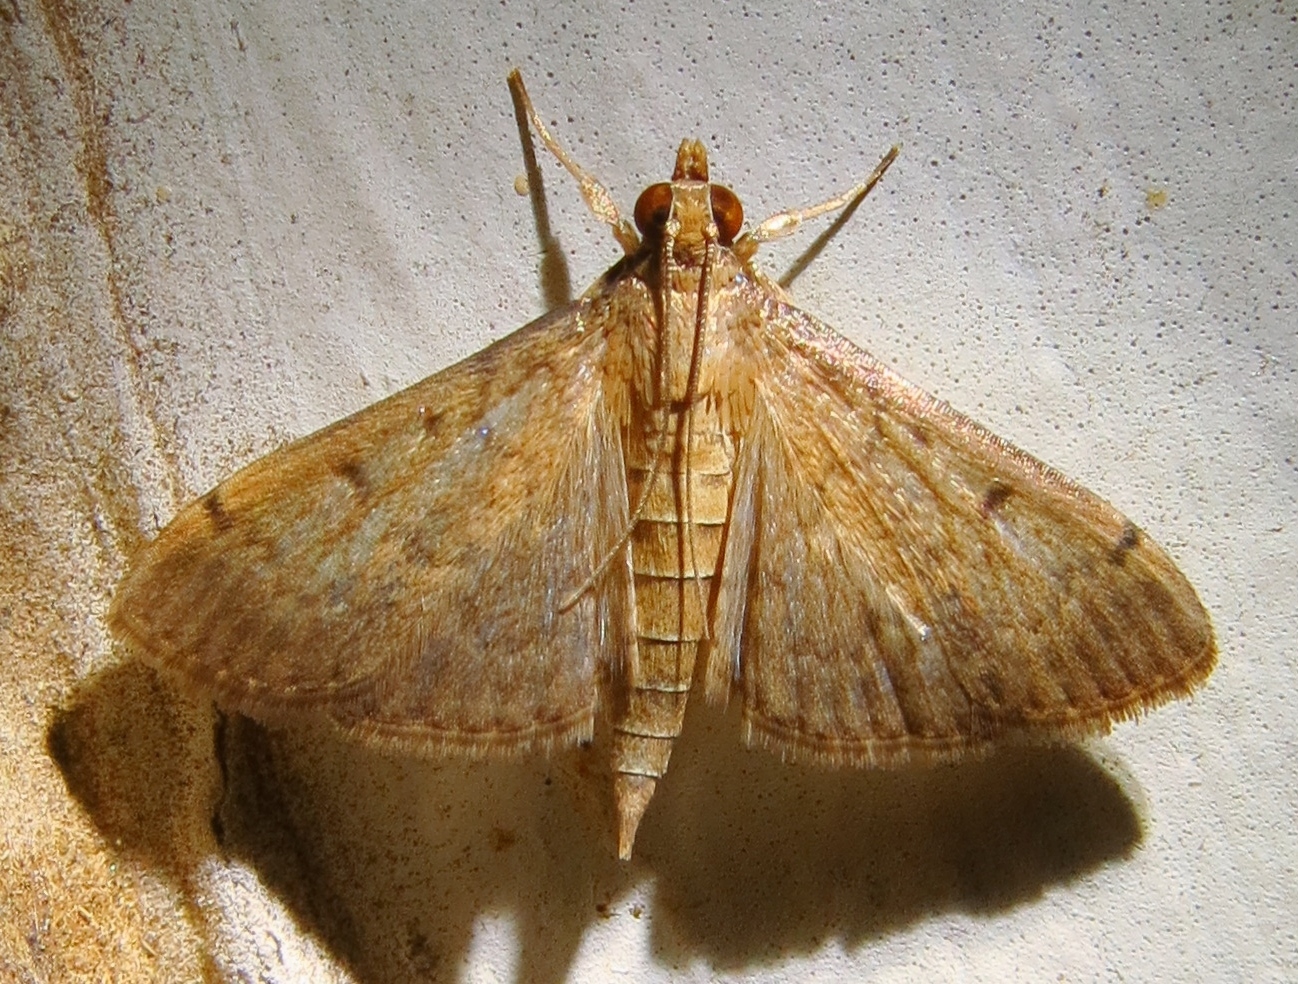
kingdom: Animalia
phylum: Arthropoda
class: Insecta
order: Lepidoptera
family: Crambidae
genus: Herpetogramma
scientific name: Herpetogramma phaeopteralis
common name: Dusky herpetogramma moth
